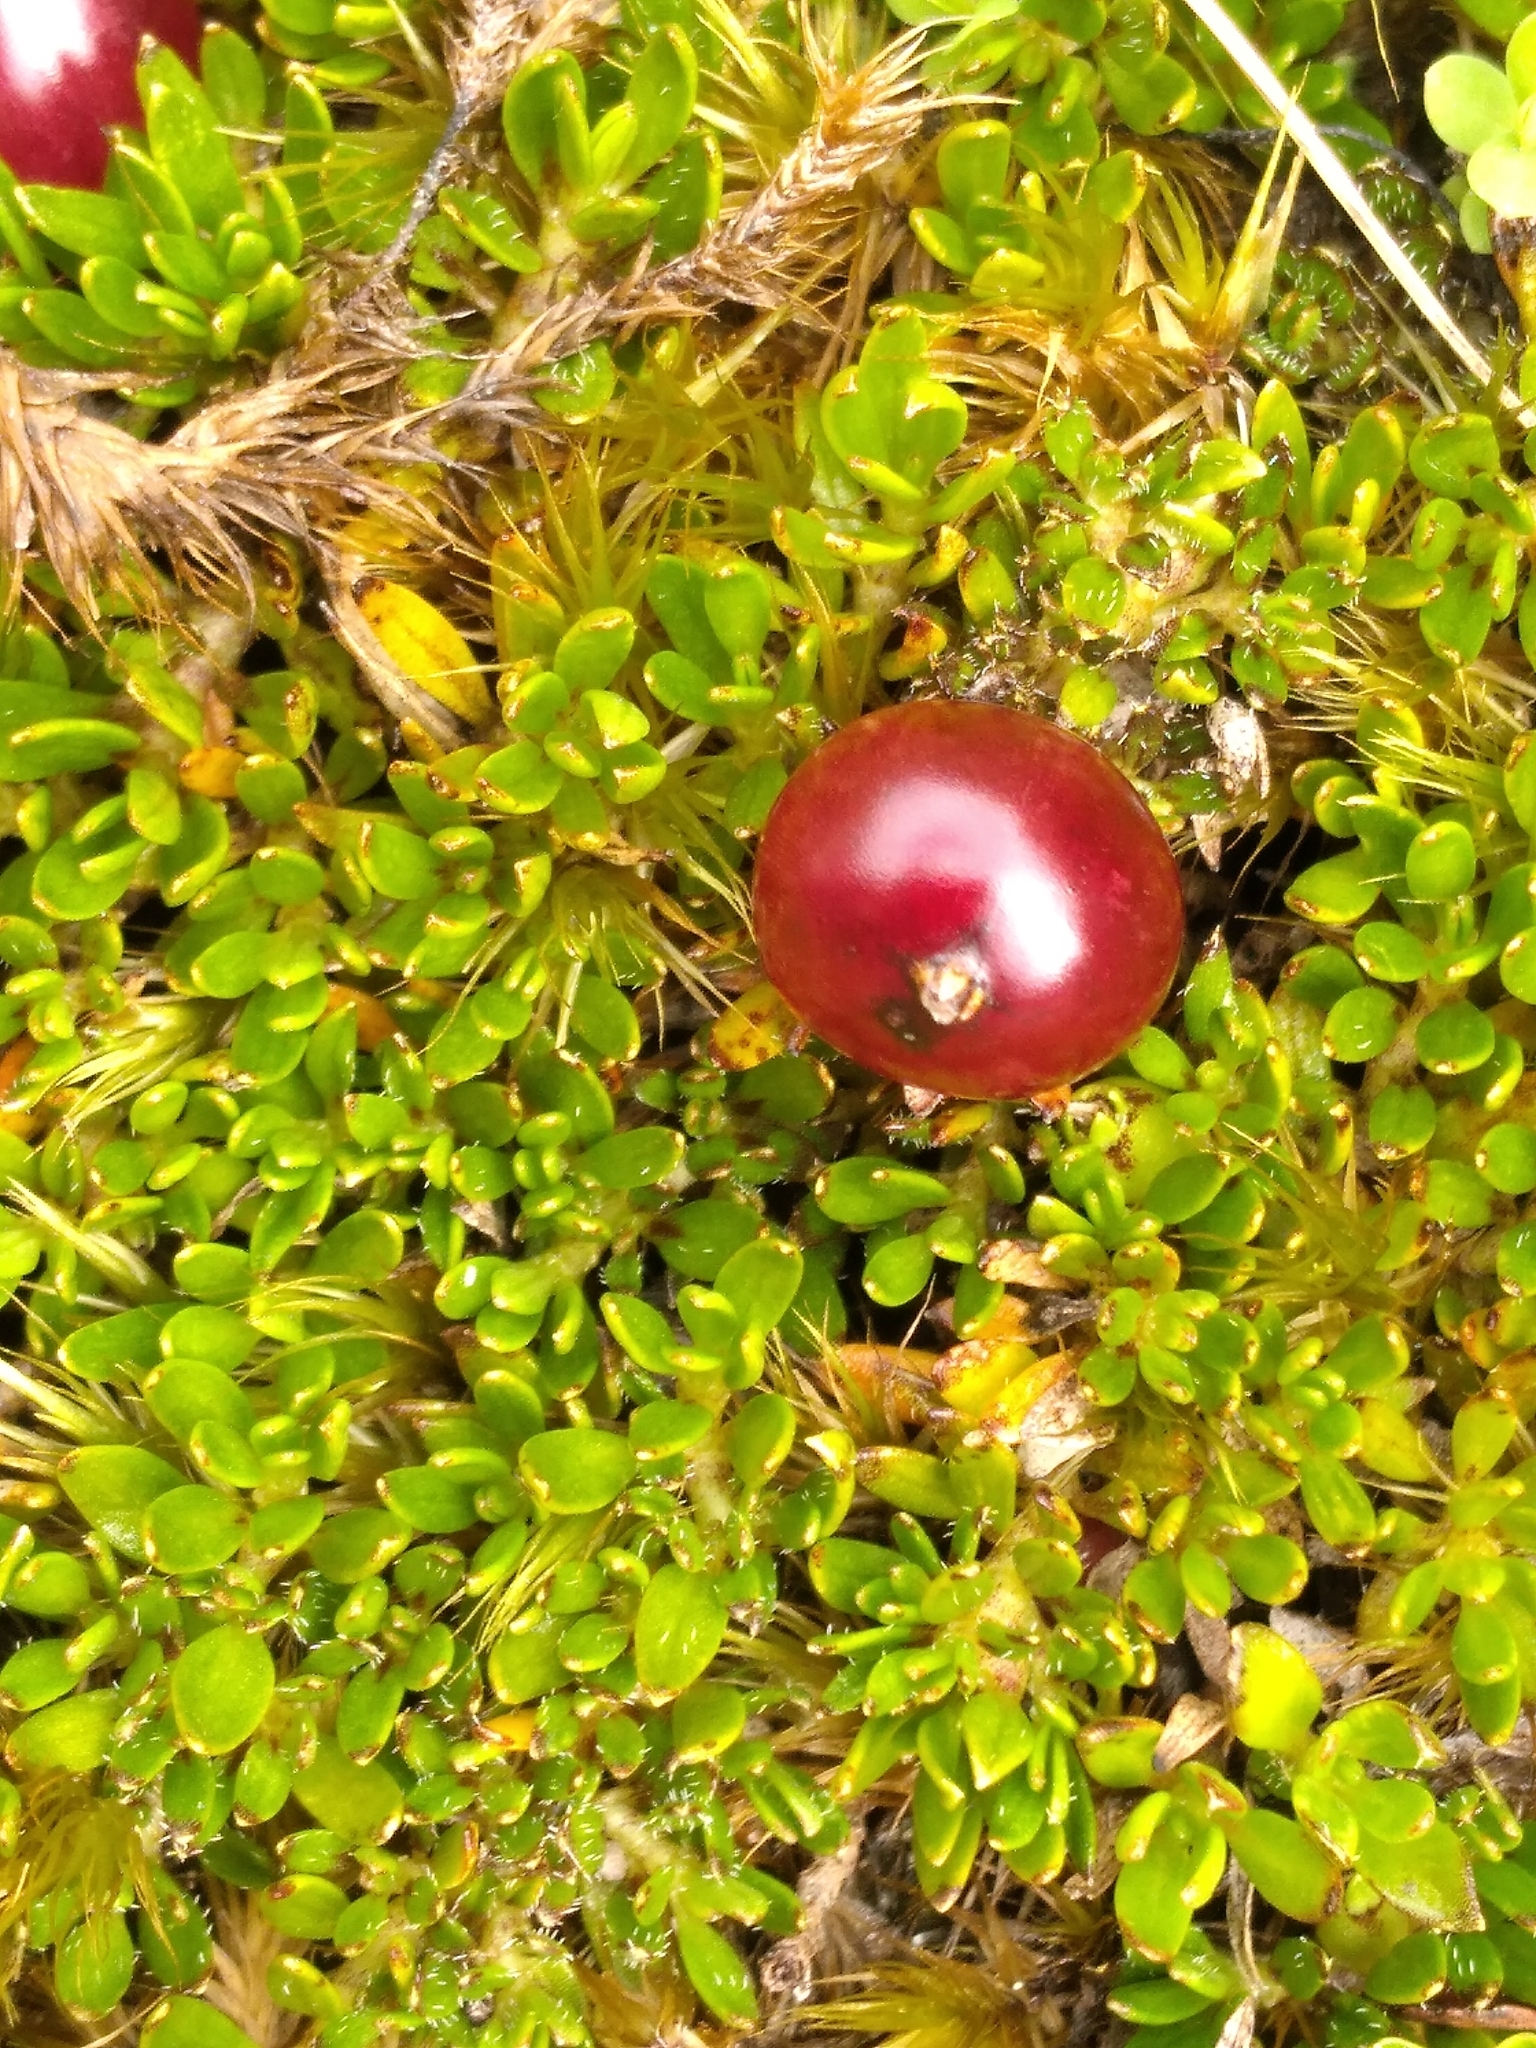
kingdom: Plantae
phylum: Tracheophyta
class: Magnoliopsida
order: Gentianales
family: Rubiaceae
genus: Coprosma
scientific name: Coprosma atropurpurea
